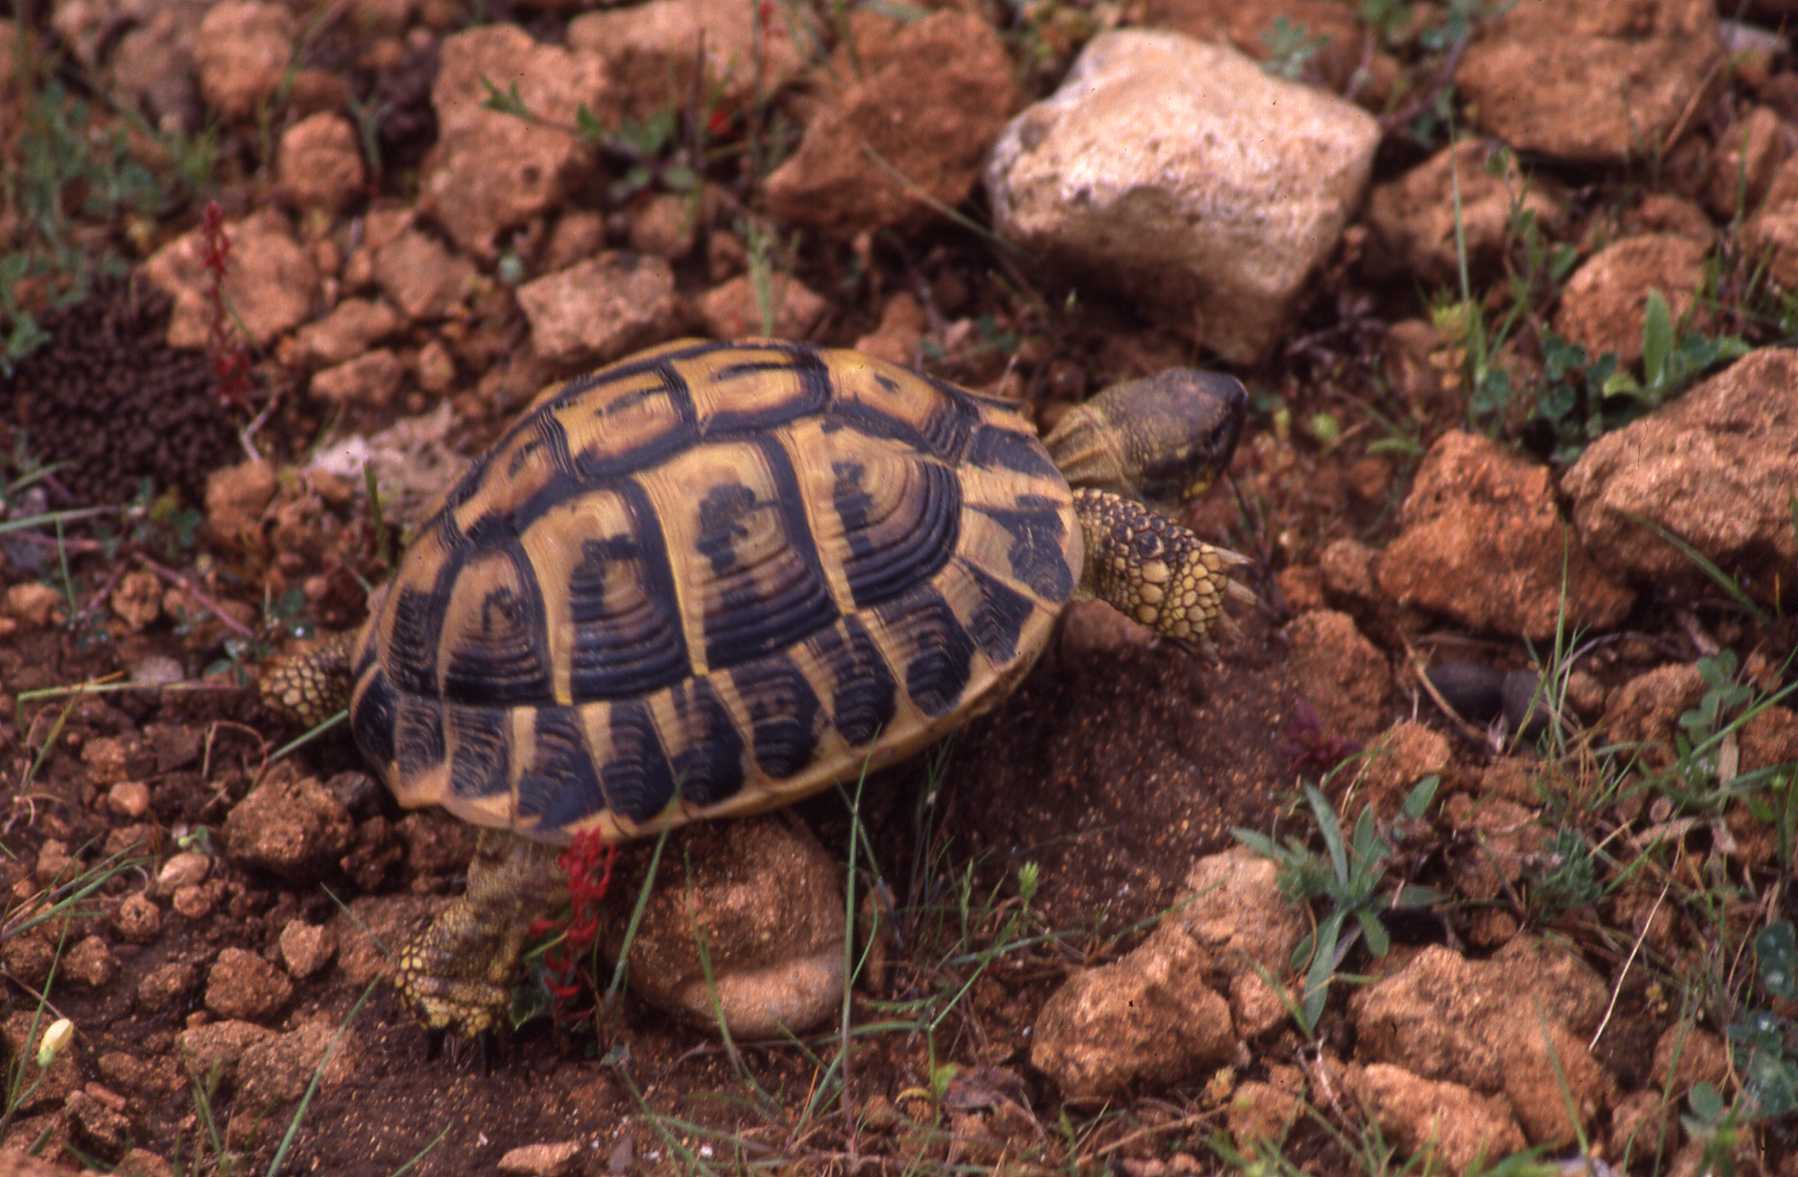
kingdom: Animalia
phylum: Chordata
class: Testudines
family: Testudinidae
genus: Testudo
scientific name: Testudo hermanni
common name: Hermann's tortoise
